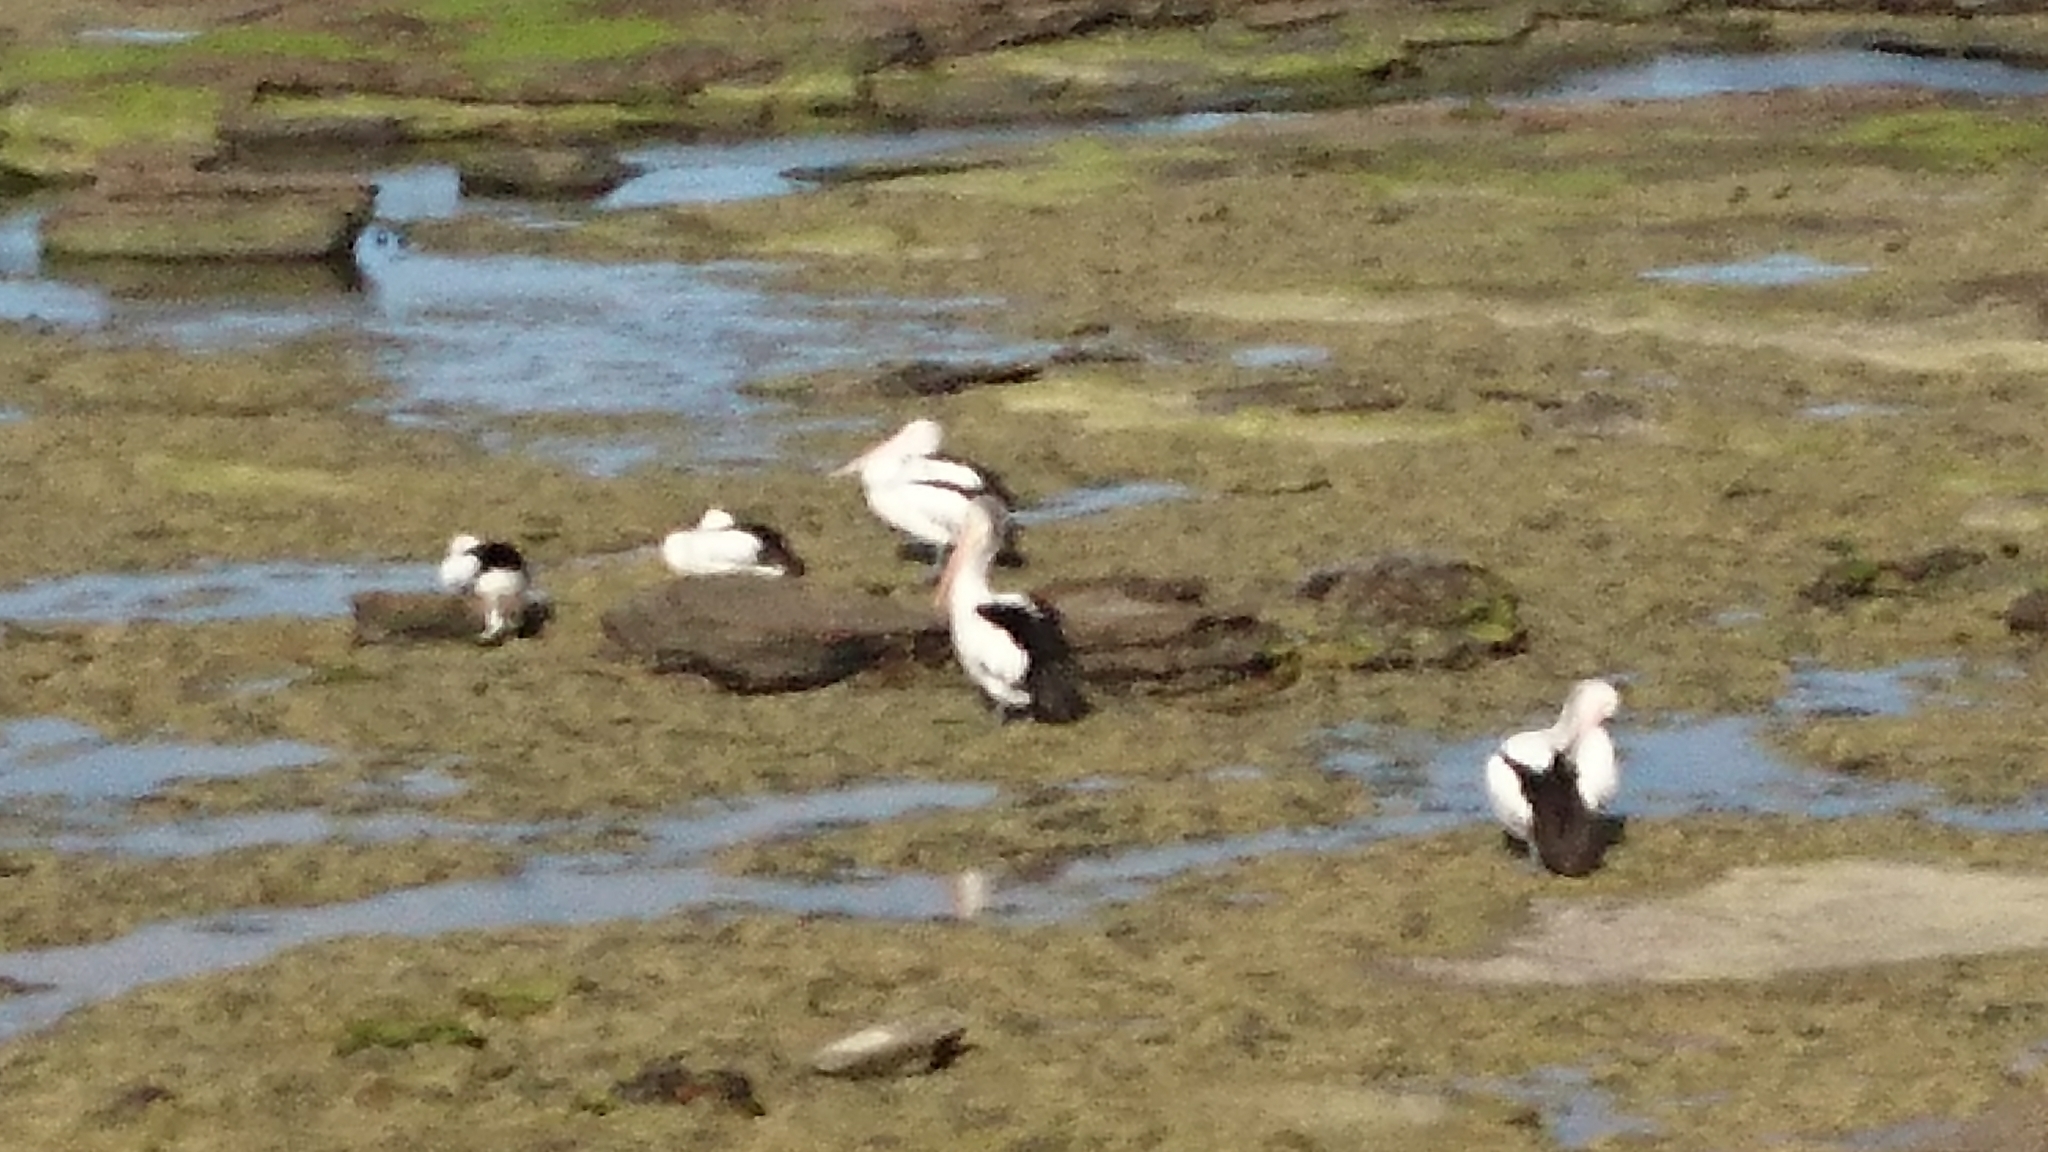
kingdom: Animalia
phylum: Chordata
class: Aves
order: Pelecaniformes
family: Pelecanidae
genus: Pelecanus
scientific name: Pelecanus conspicillatus
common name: Australian pelican
